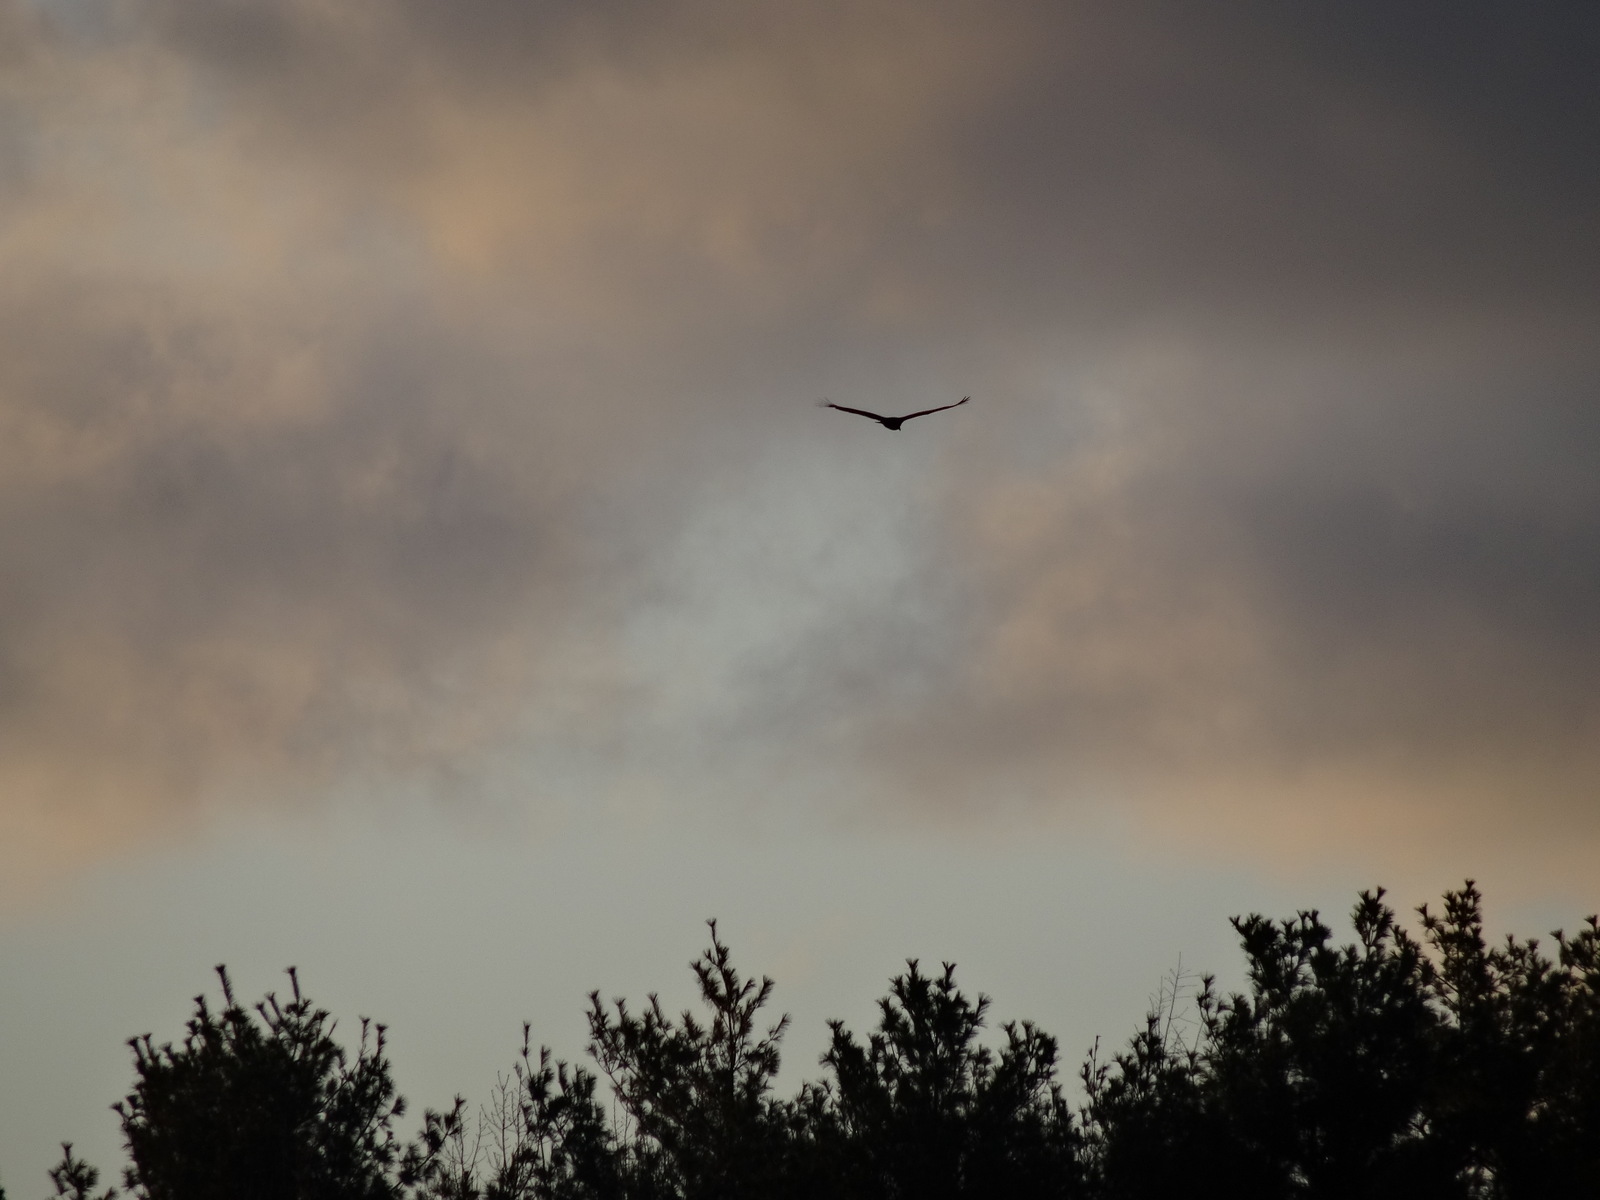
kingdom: Animalia
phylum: Chordata
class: Aves
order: Accipitriformes
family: Cathartidae
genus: Cathartes
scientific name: Cathartes aura
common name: Turkey vulture
